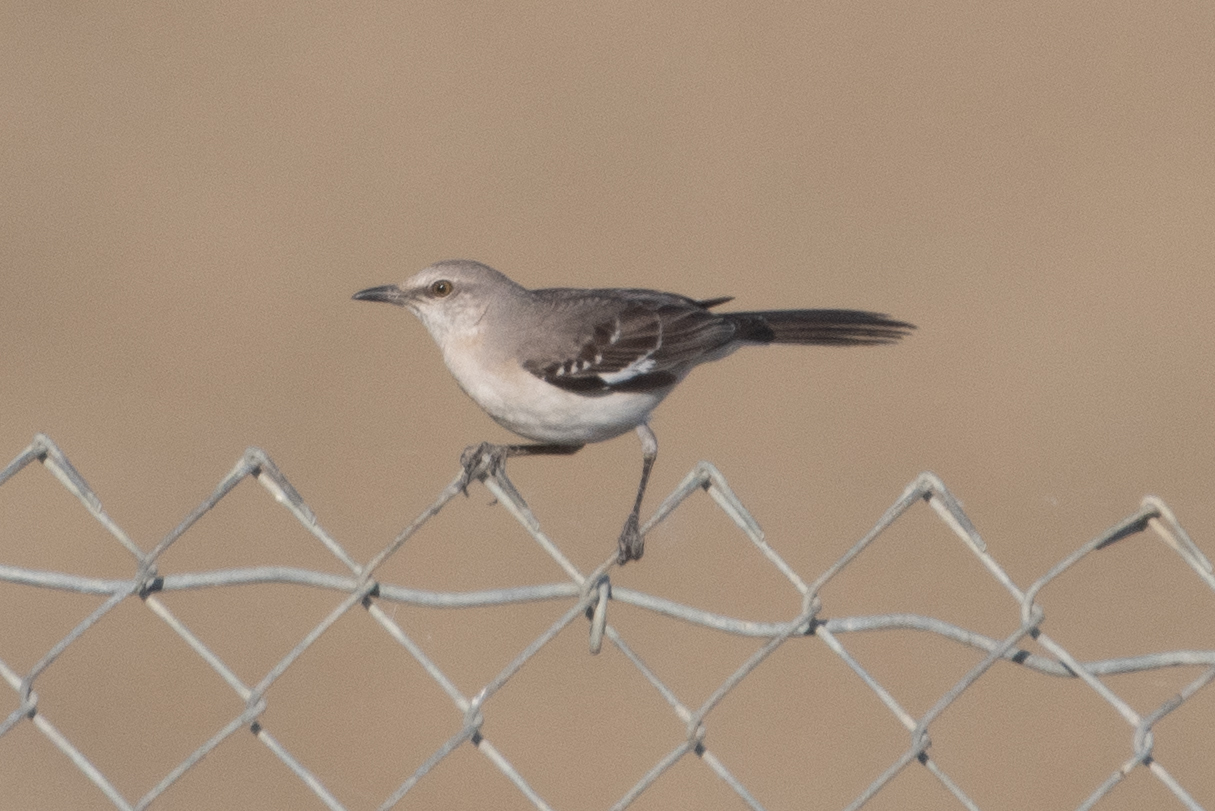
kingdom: Animalia
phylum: Chordata
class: Aves
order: Passeriformes
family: Mimidae
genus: Mimus
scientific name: Mimus polyglottos
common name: Northern mockingbird
